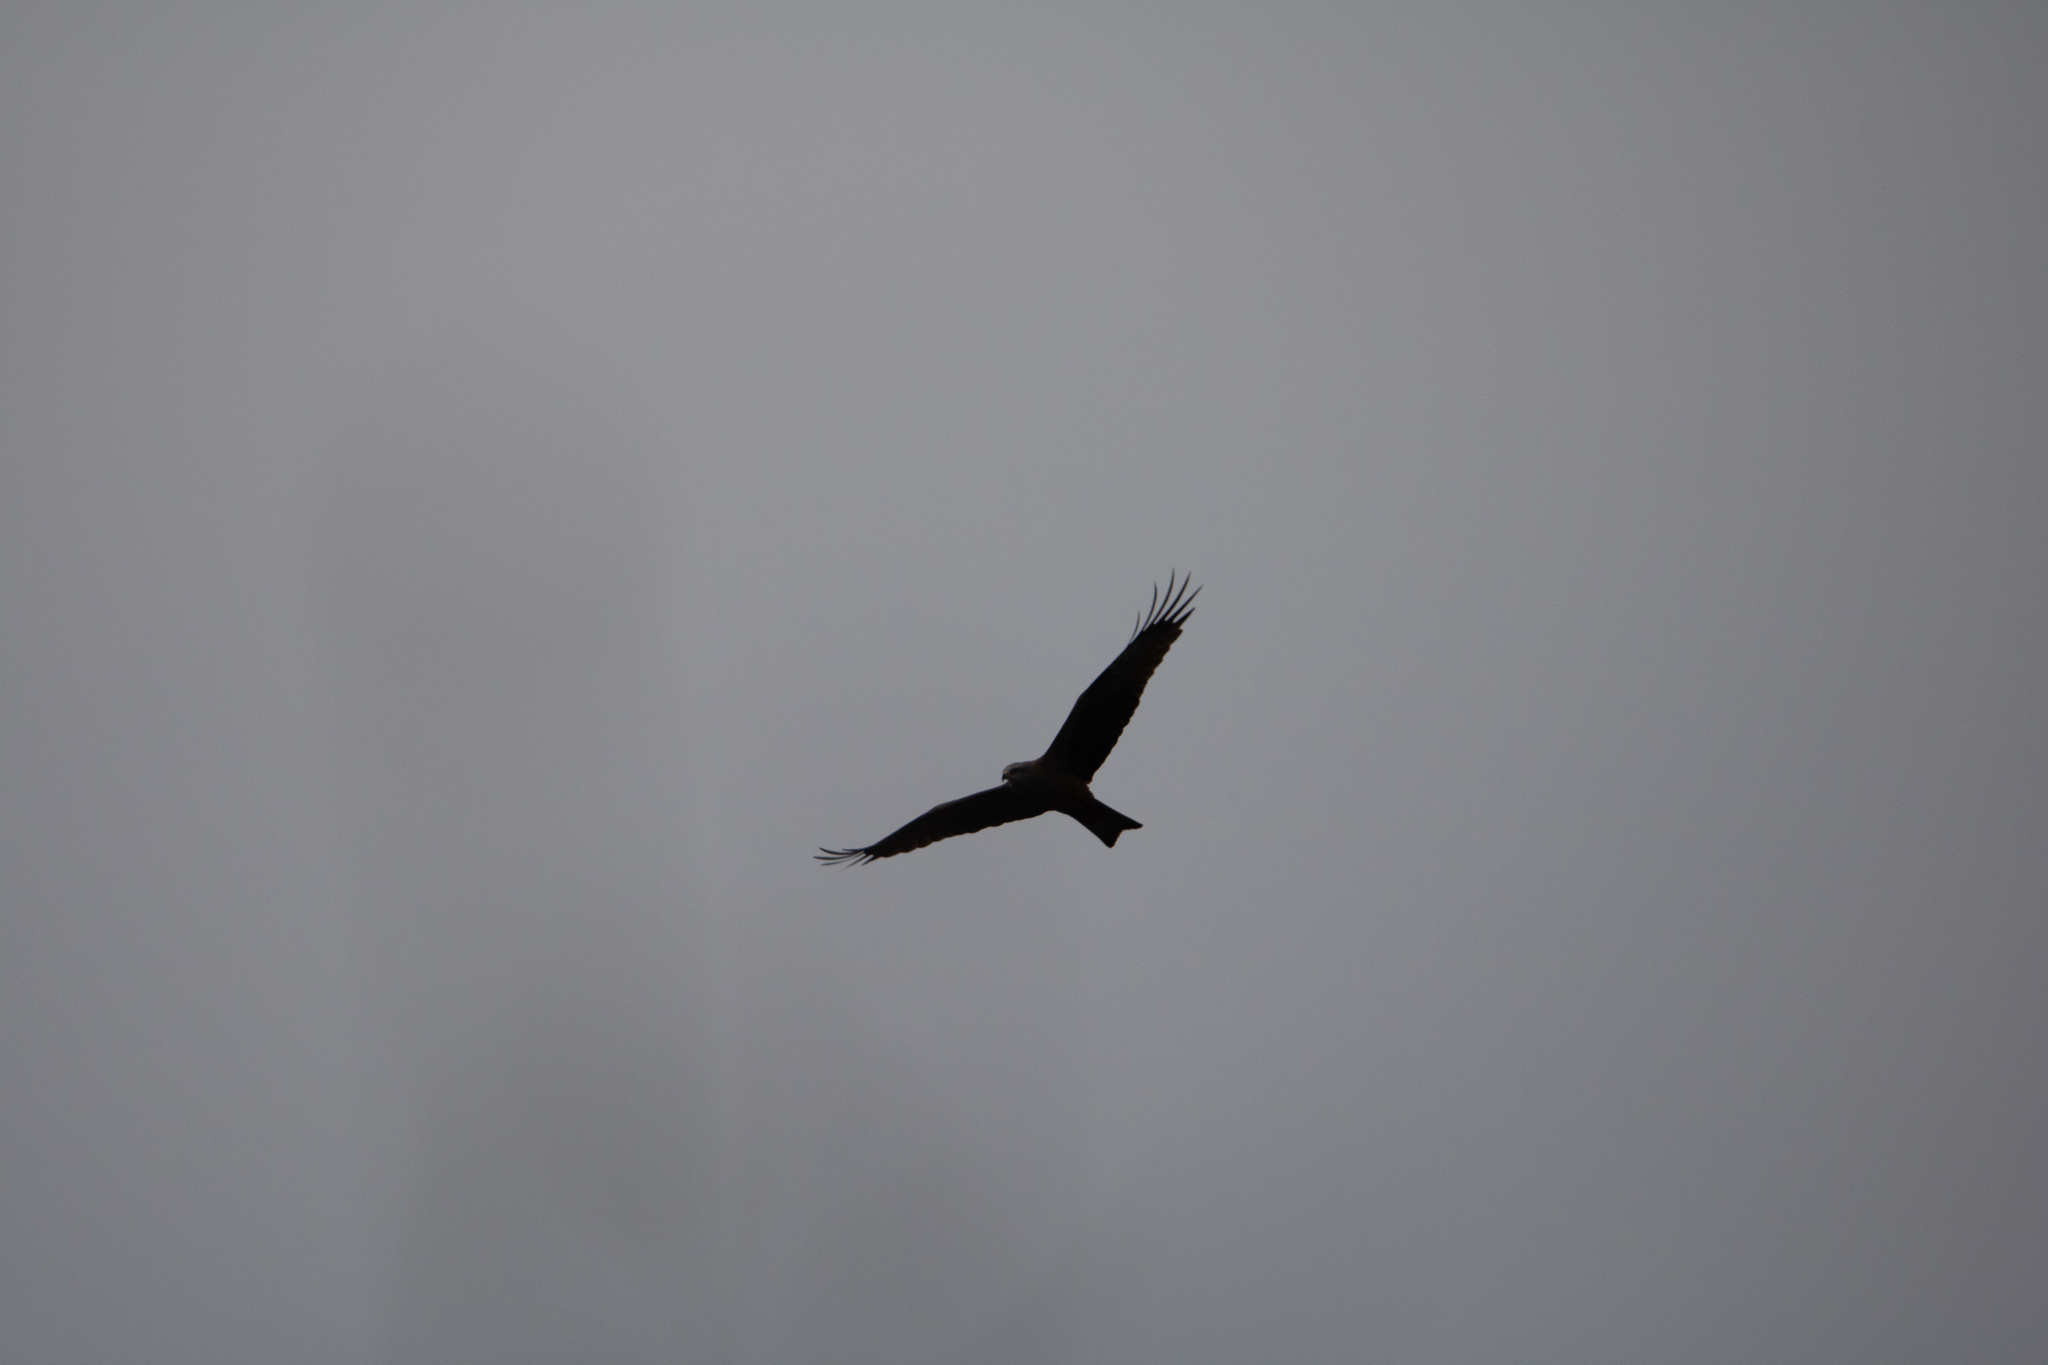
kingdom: Animalia
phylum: Chordata
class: Aves
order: Accipitriformes
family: Accipitridae
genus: Milvus
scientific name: Milvus migrans
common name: Black kite
